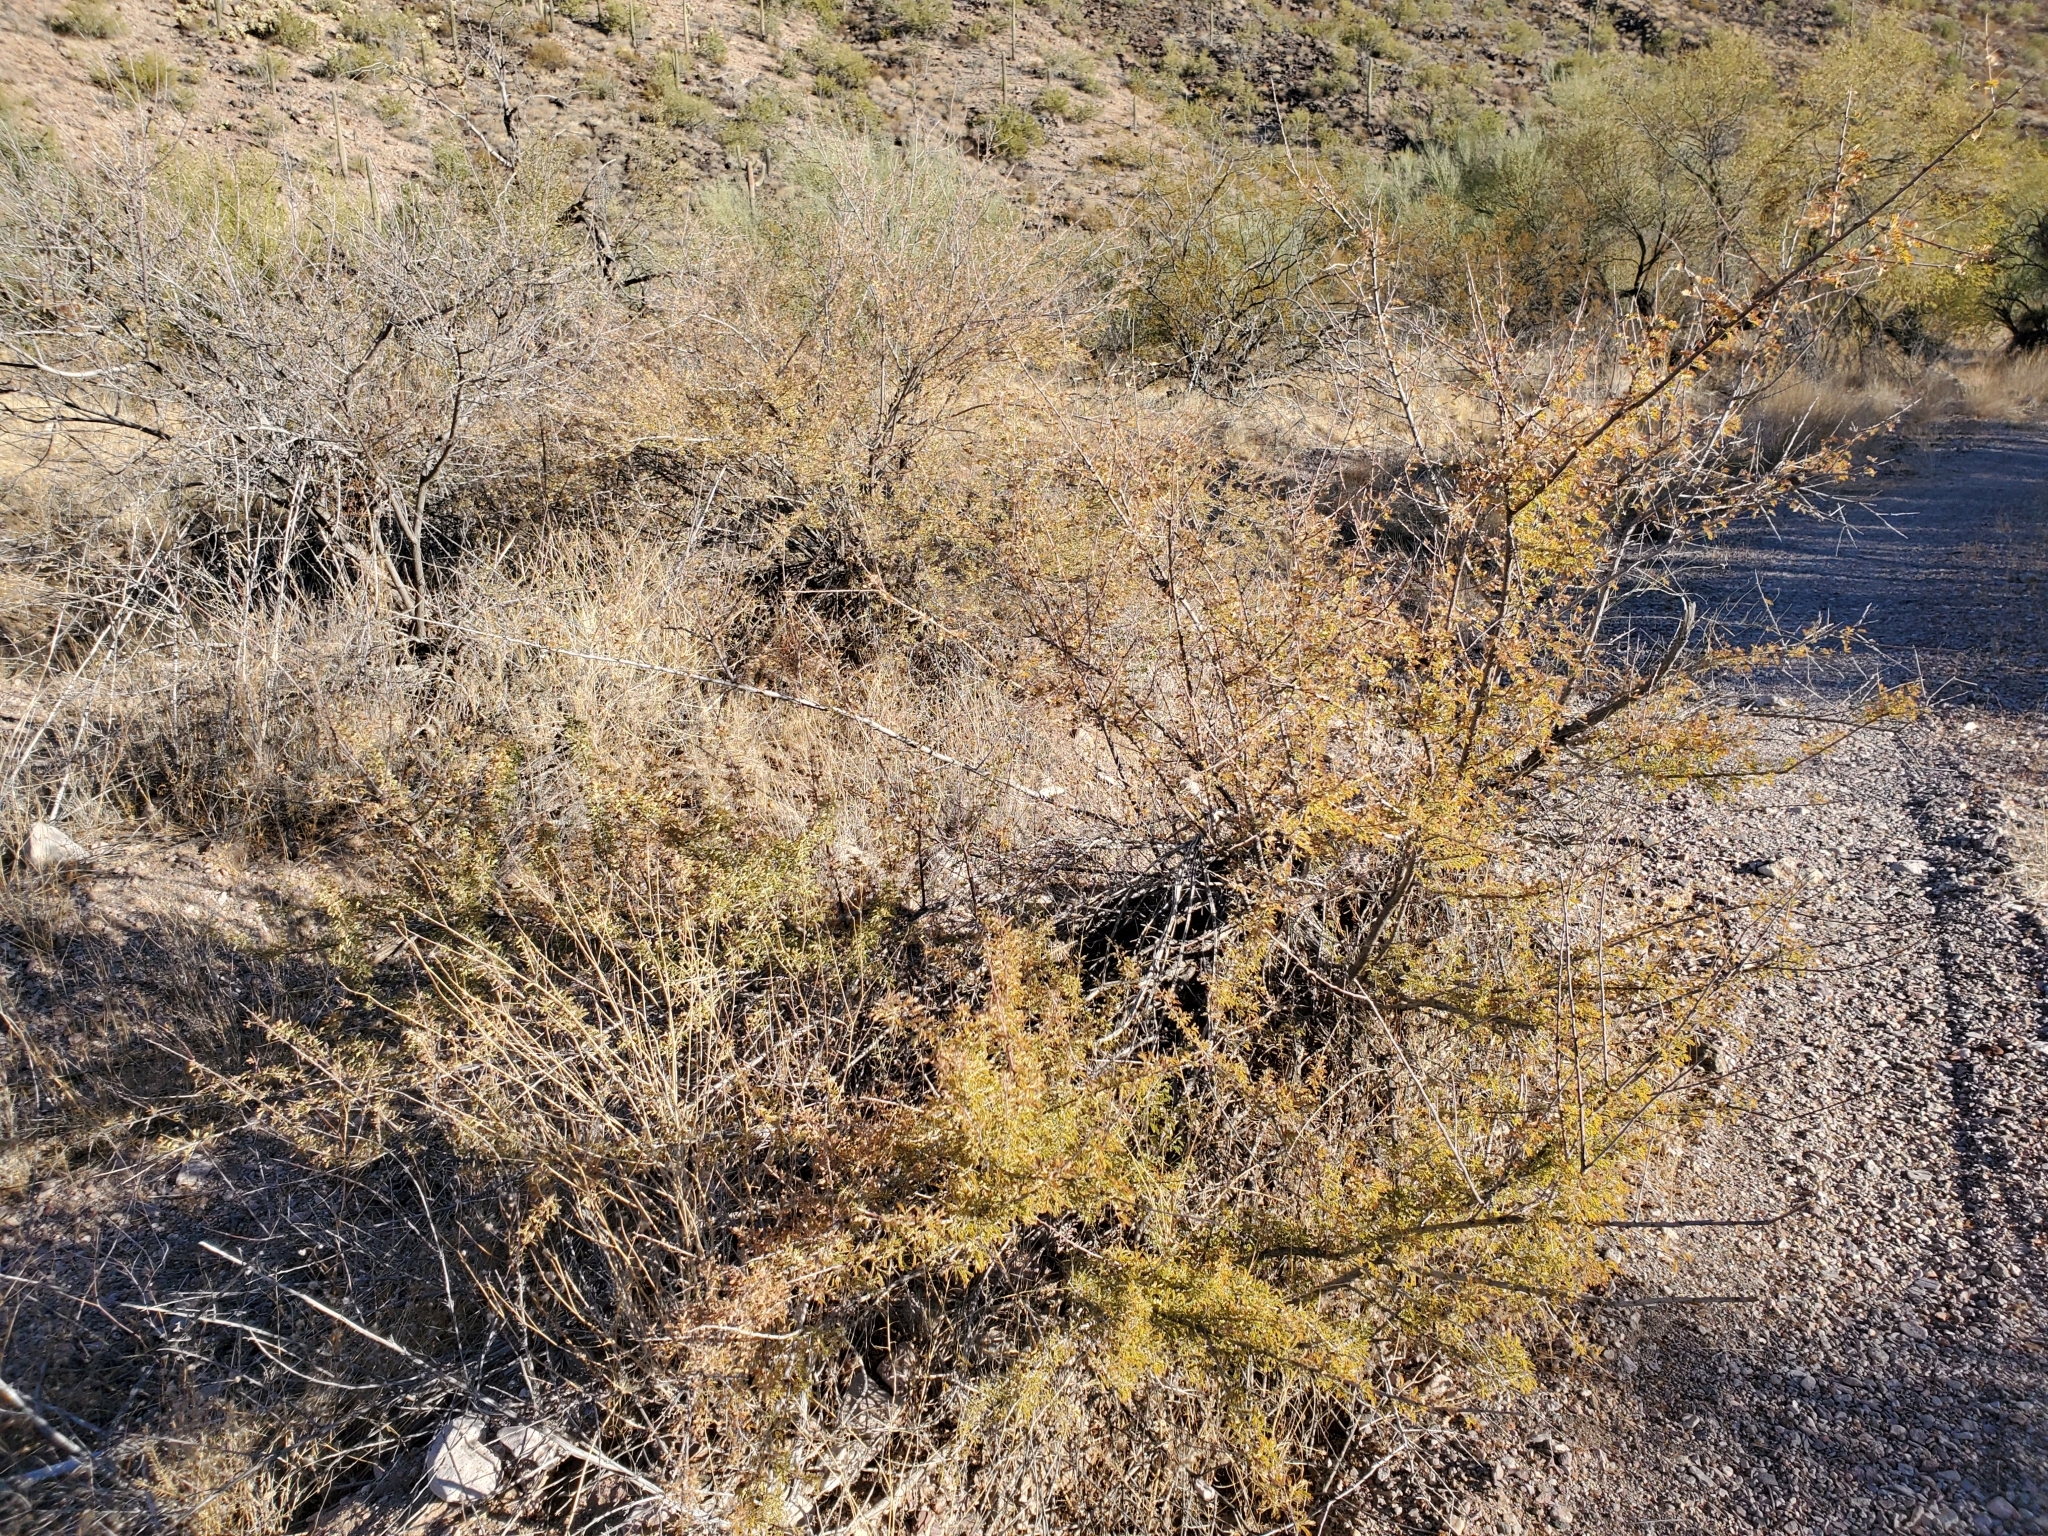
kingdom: Plantae
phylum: Tracheophyta
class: Magnoliopsida
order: Fabales
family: Fabaceae
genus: Senegalia
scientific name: Senegalia greggii
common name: Texas-mimosa
